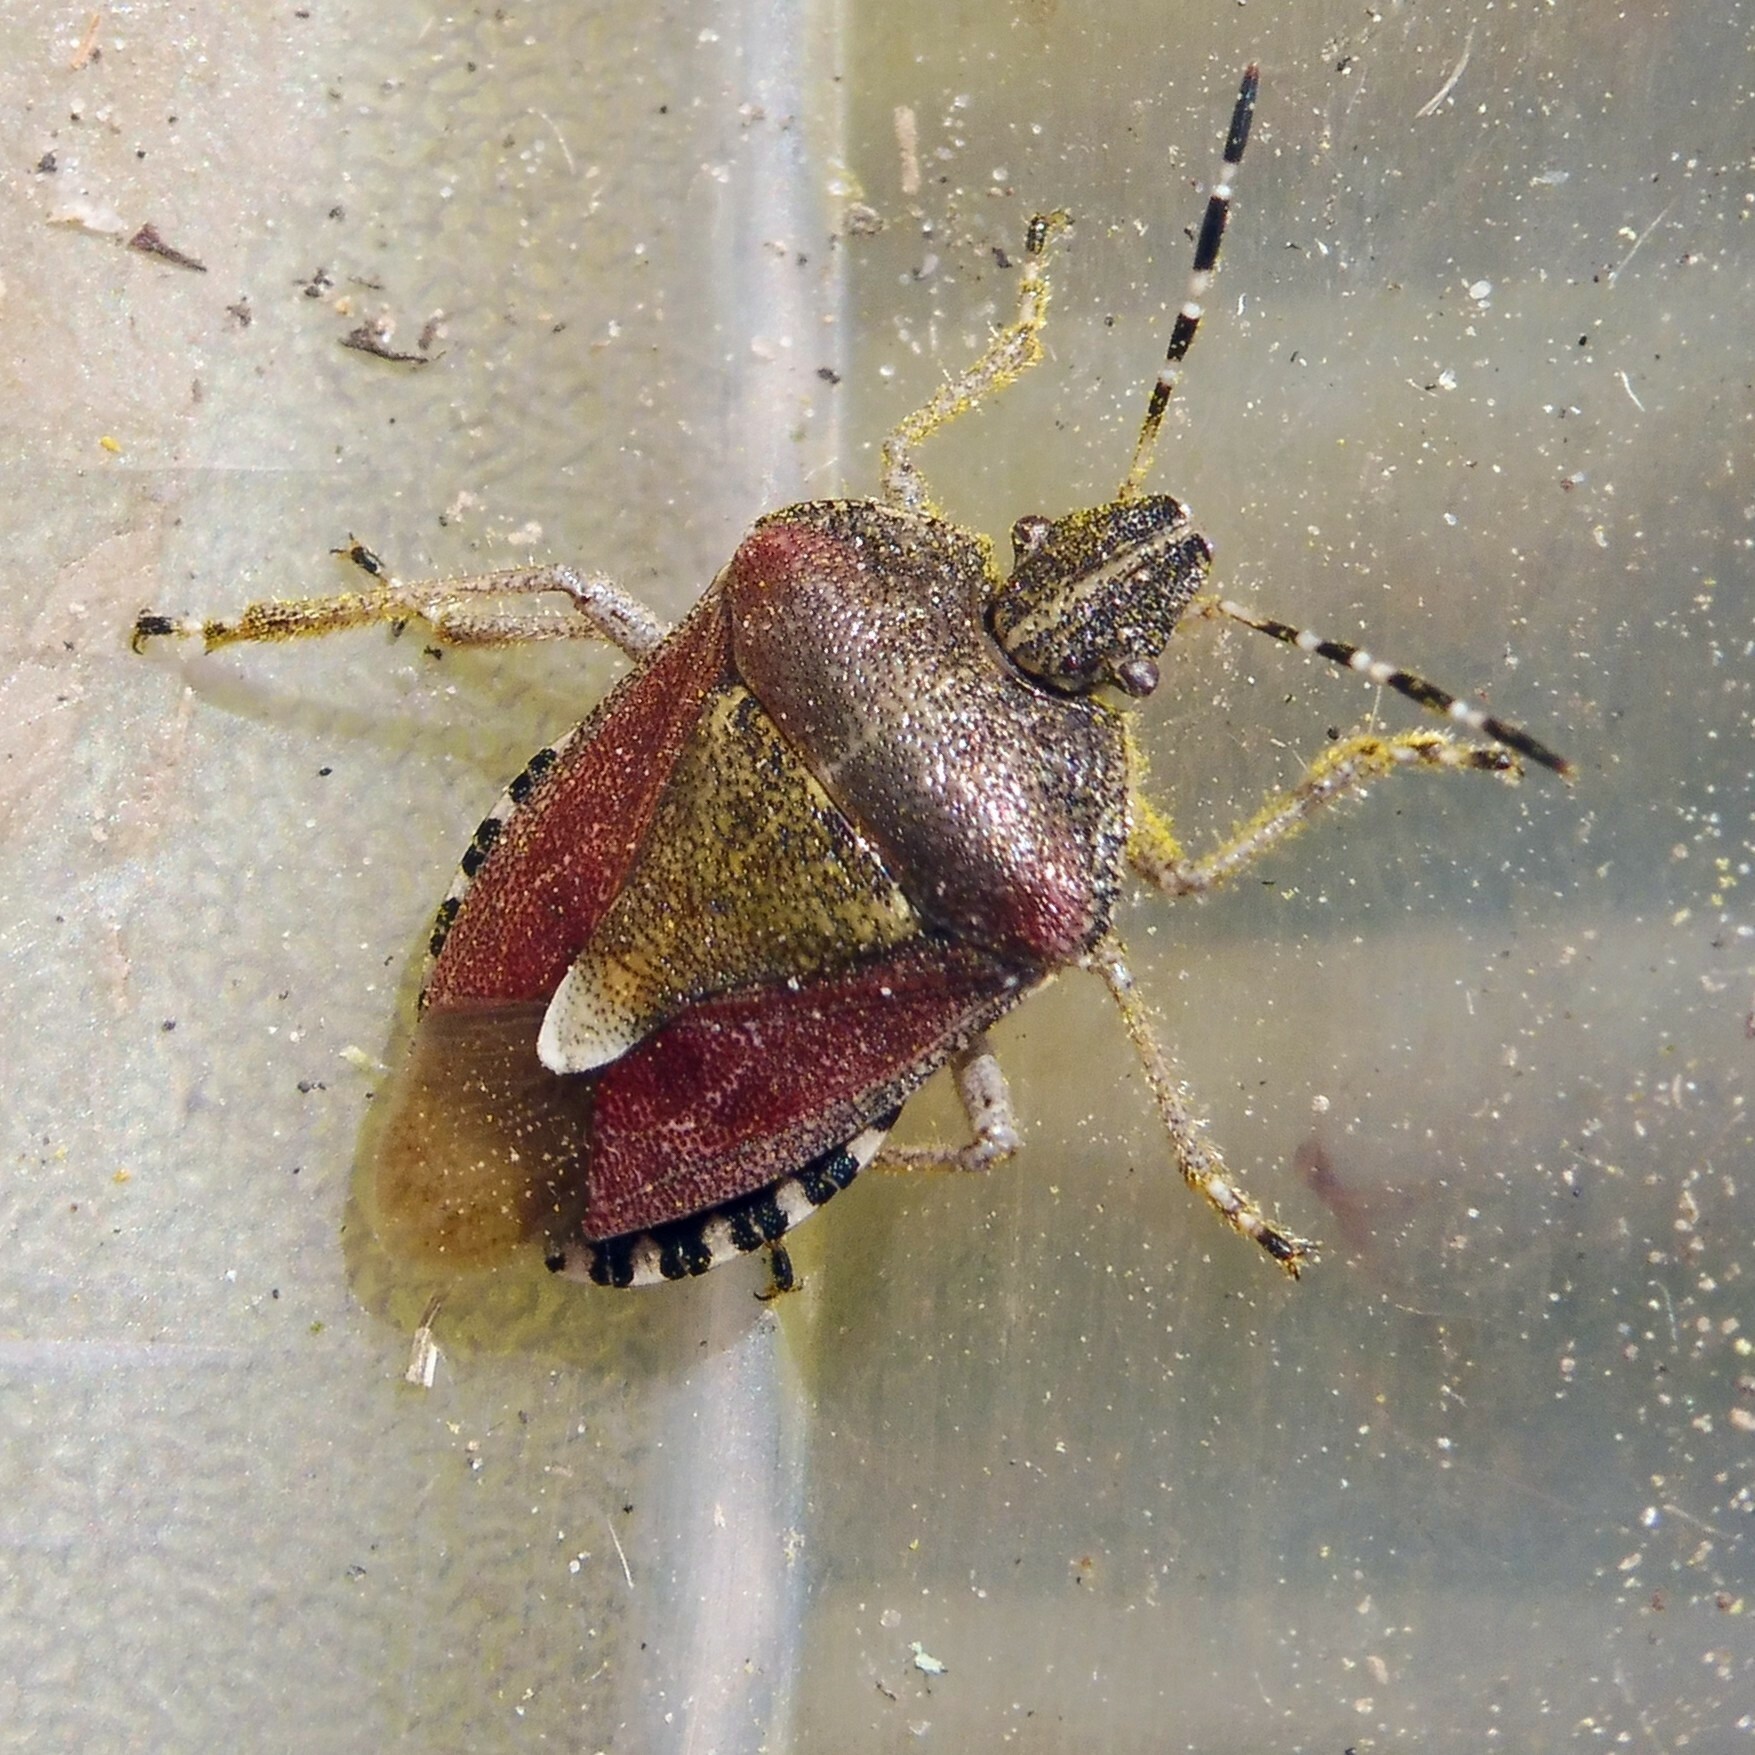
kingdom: Animalia
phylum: Arthropoda
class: Insecta
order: Hemiptera
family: Pentatomidae
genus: Dolycoris
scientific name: Dolycoris baccarum
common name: Sloe bug
